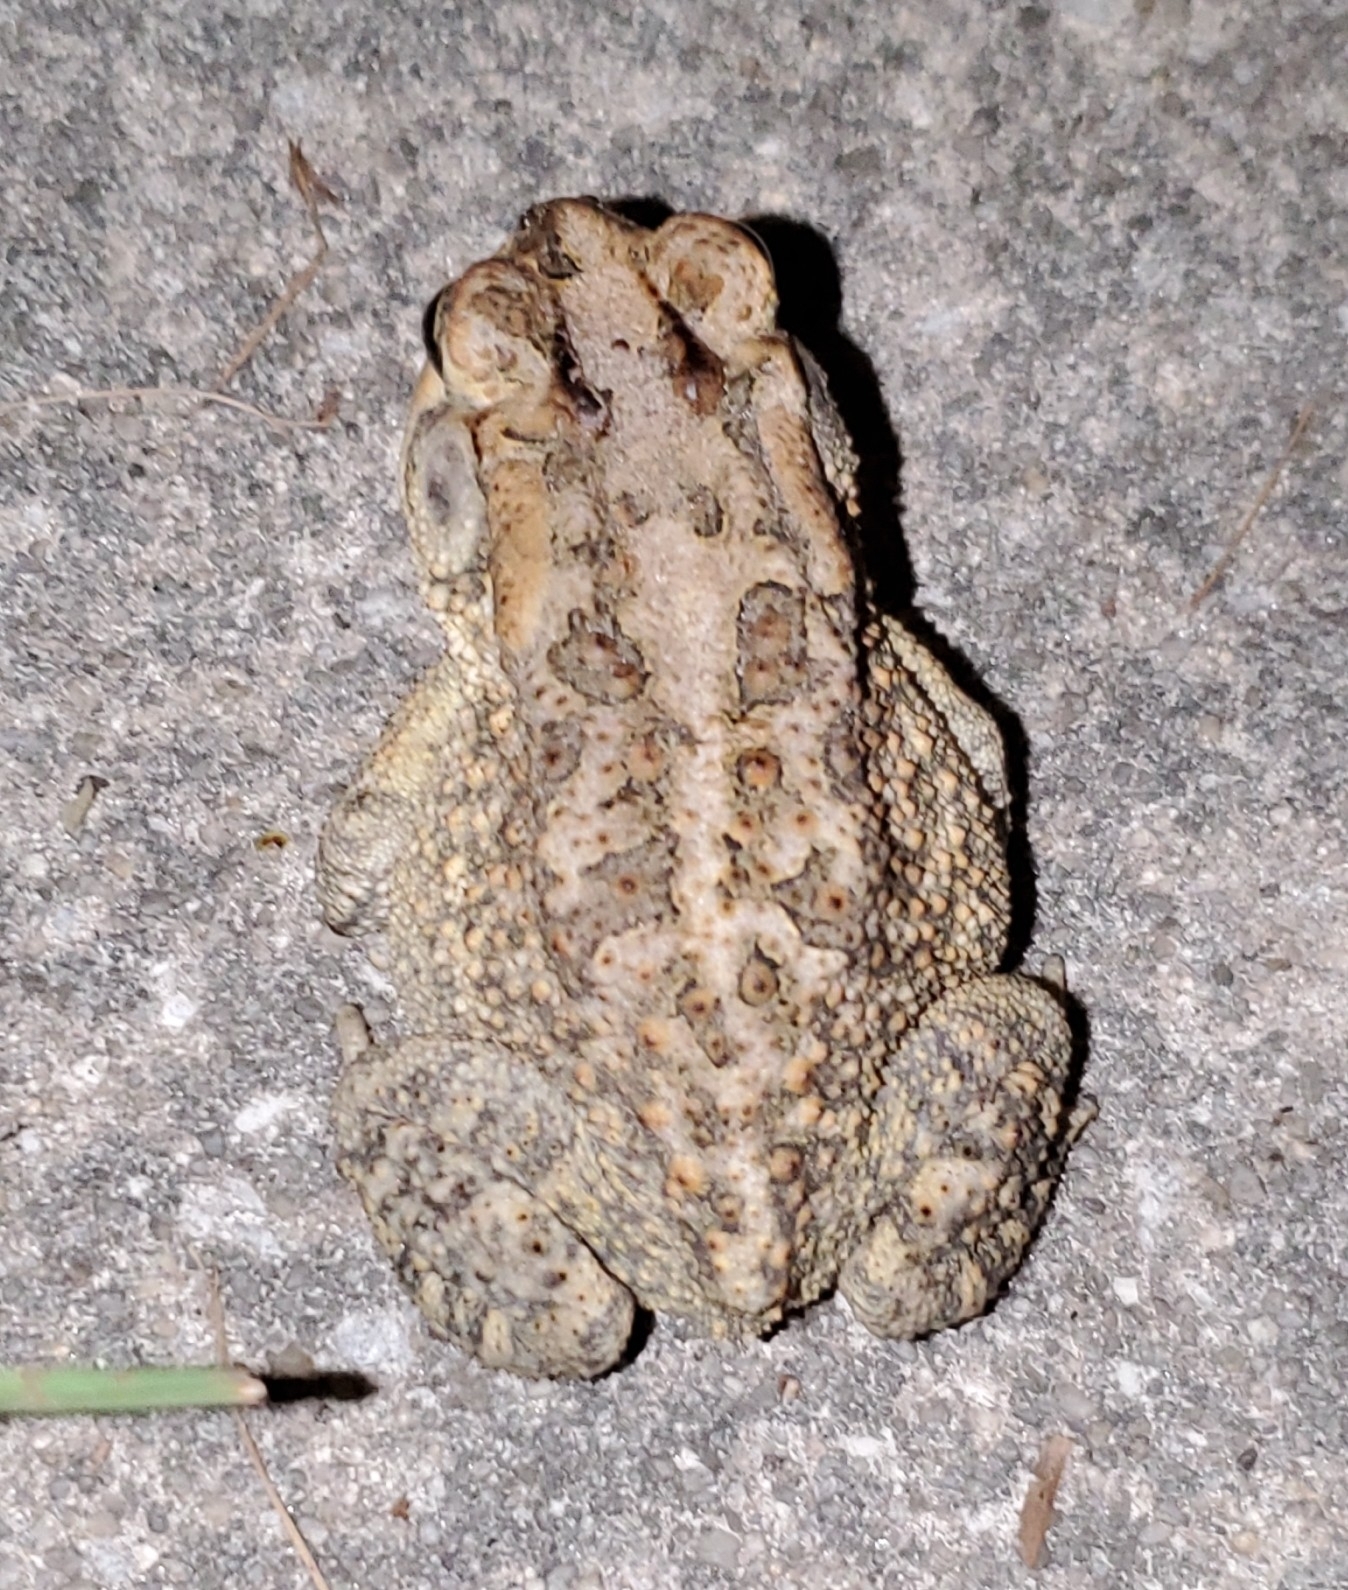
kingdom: Animalia
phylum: Chordata
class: Amphibia
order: Anura
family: Bufonidae
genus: Anaxyrus
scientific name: Anaxyrus terrestris
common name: Southern toad
